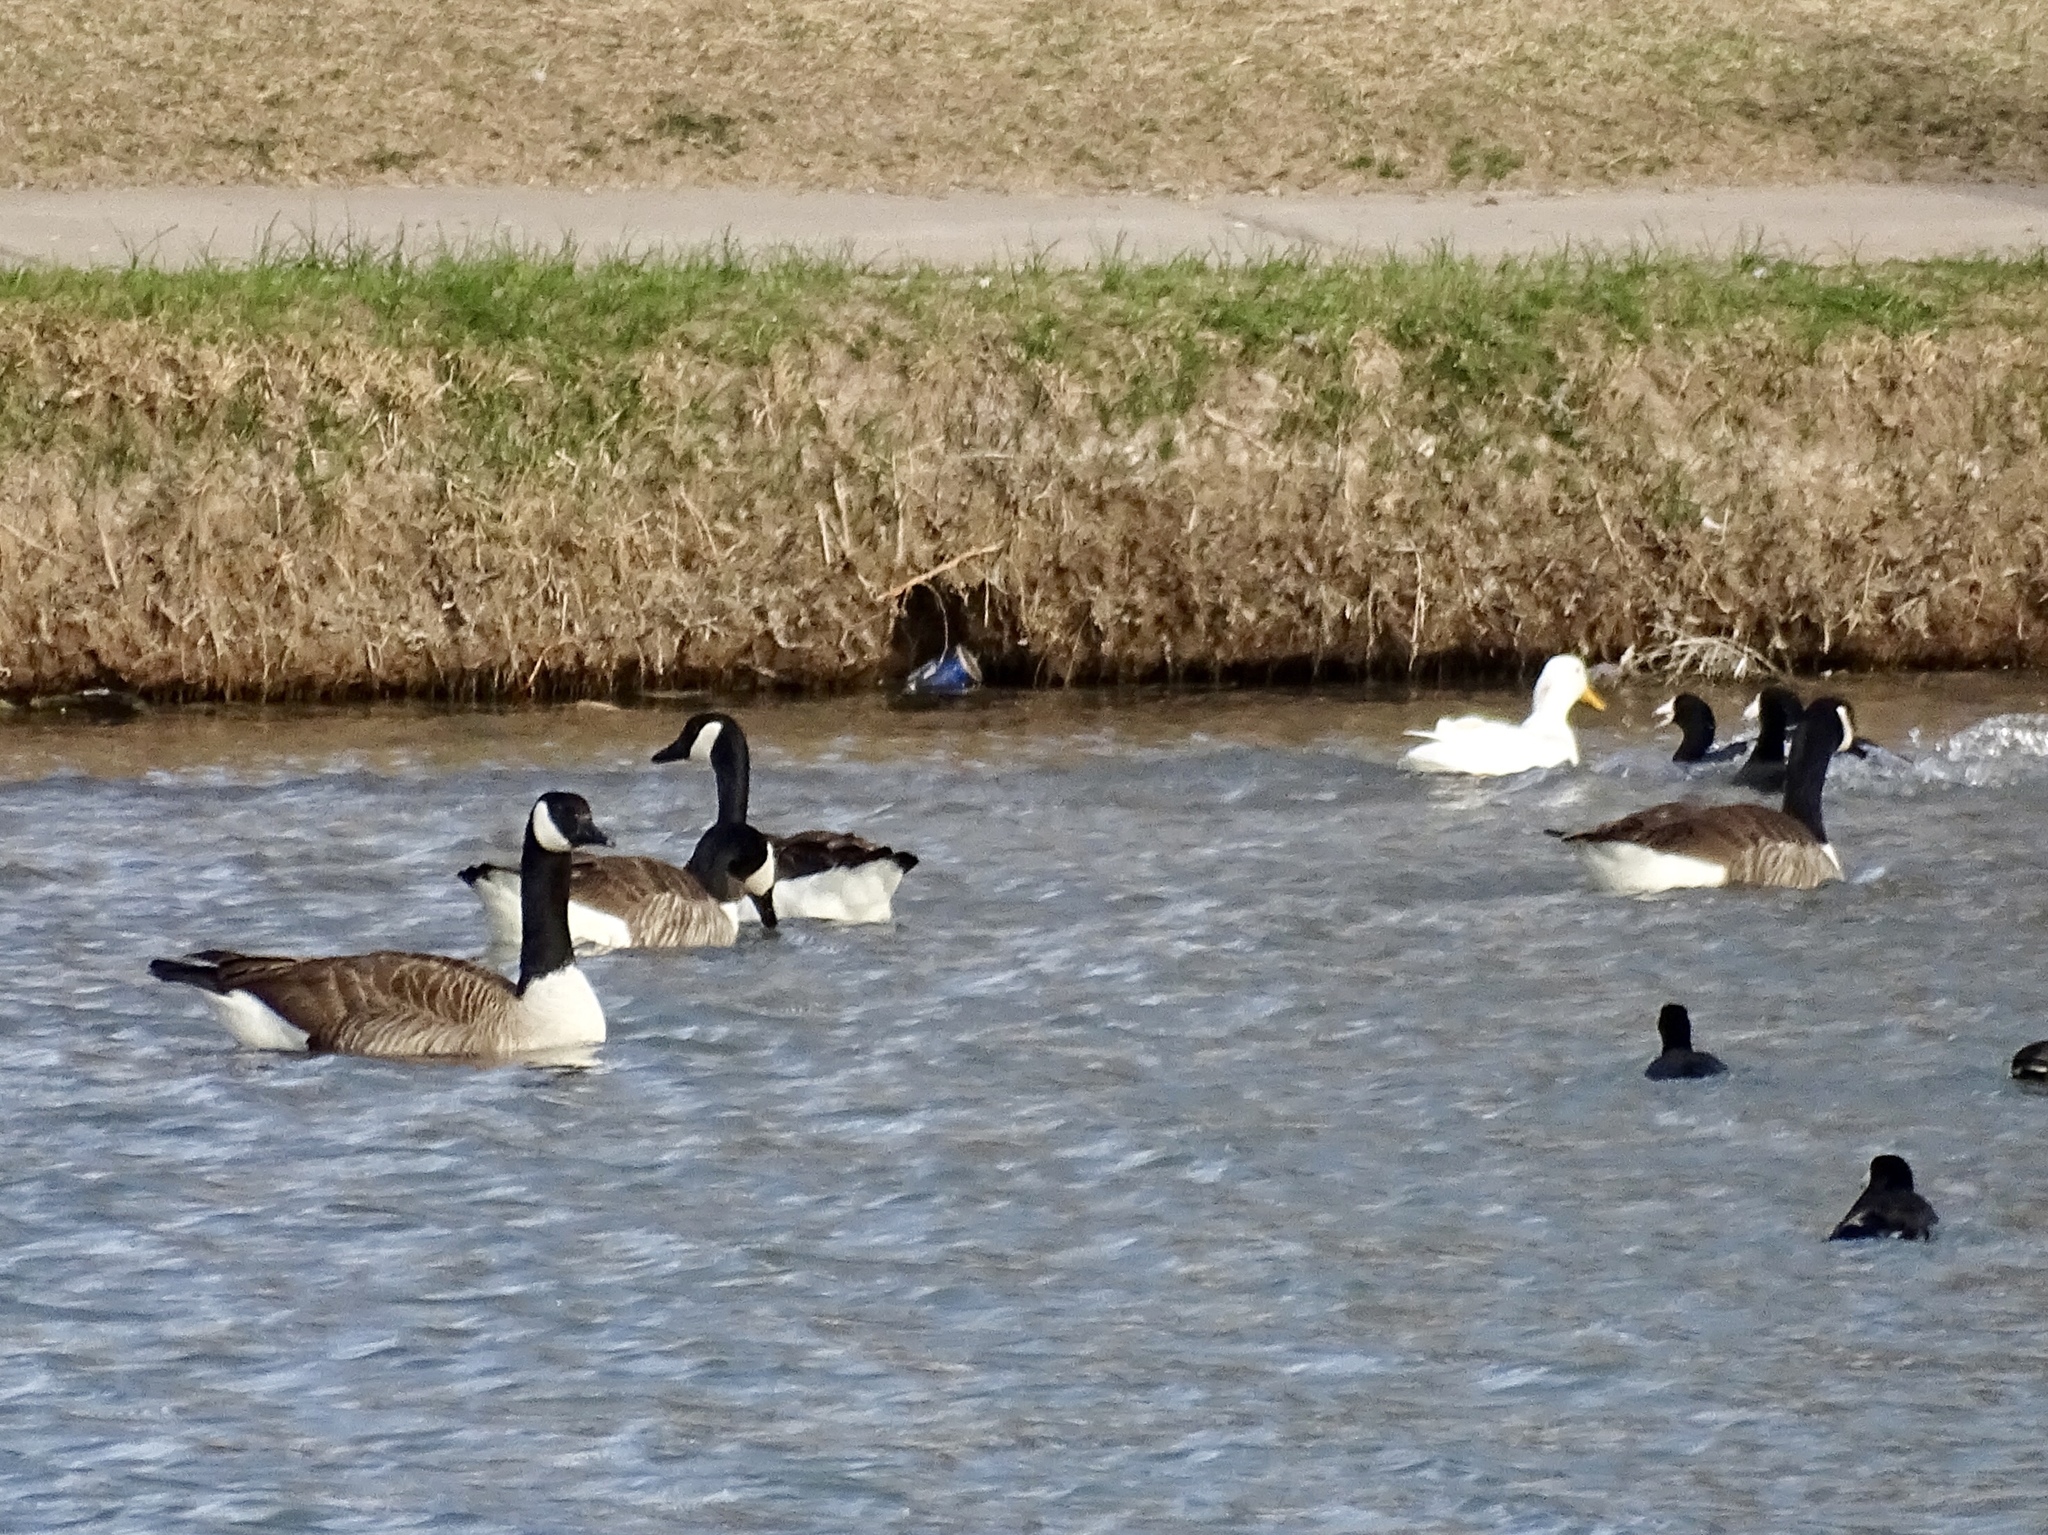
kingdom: Animalia
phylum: Chordata
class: Aves
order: Anseriformes
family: Anatidae
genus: Branta
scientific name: Branta canadensis
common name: Canada goose
